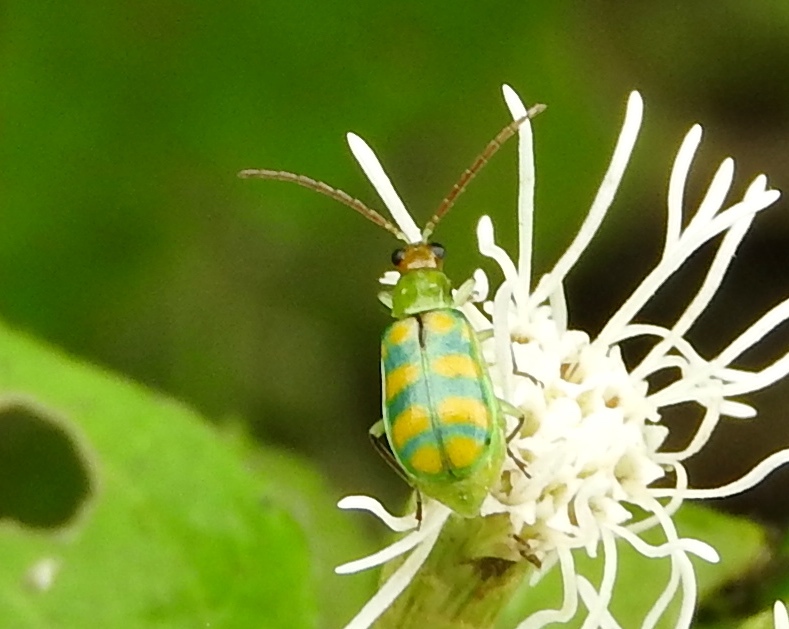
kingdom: Animalia
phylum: Arthropoda
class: Insecta
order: Coleoptera
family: Chrysomelidae
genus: Diabrotica
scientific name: Diabrotica balteata
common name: Leaf beetle
